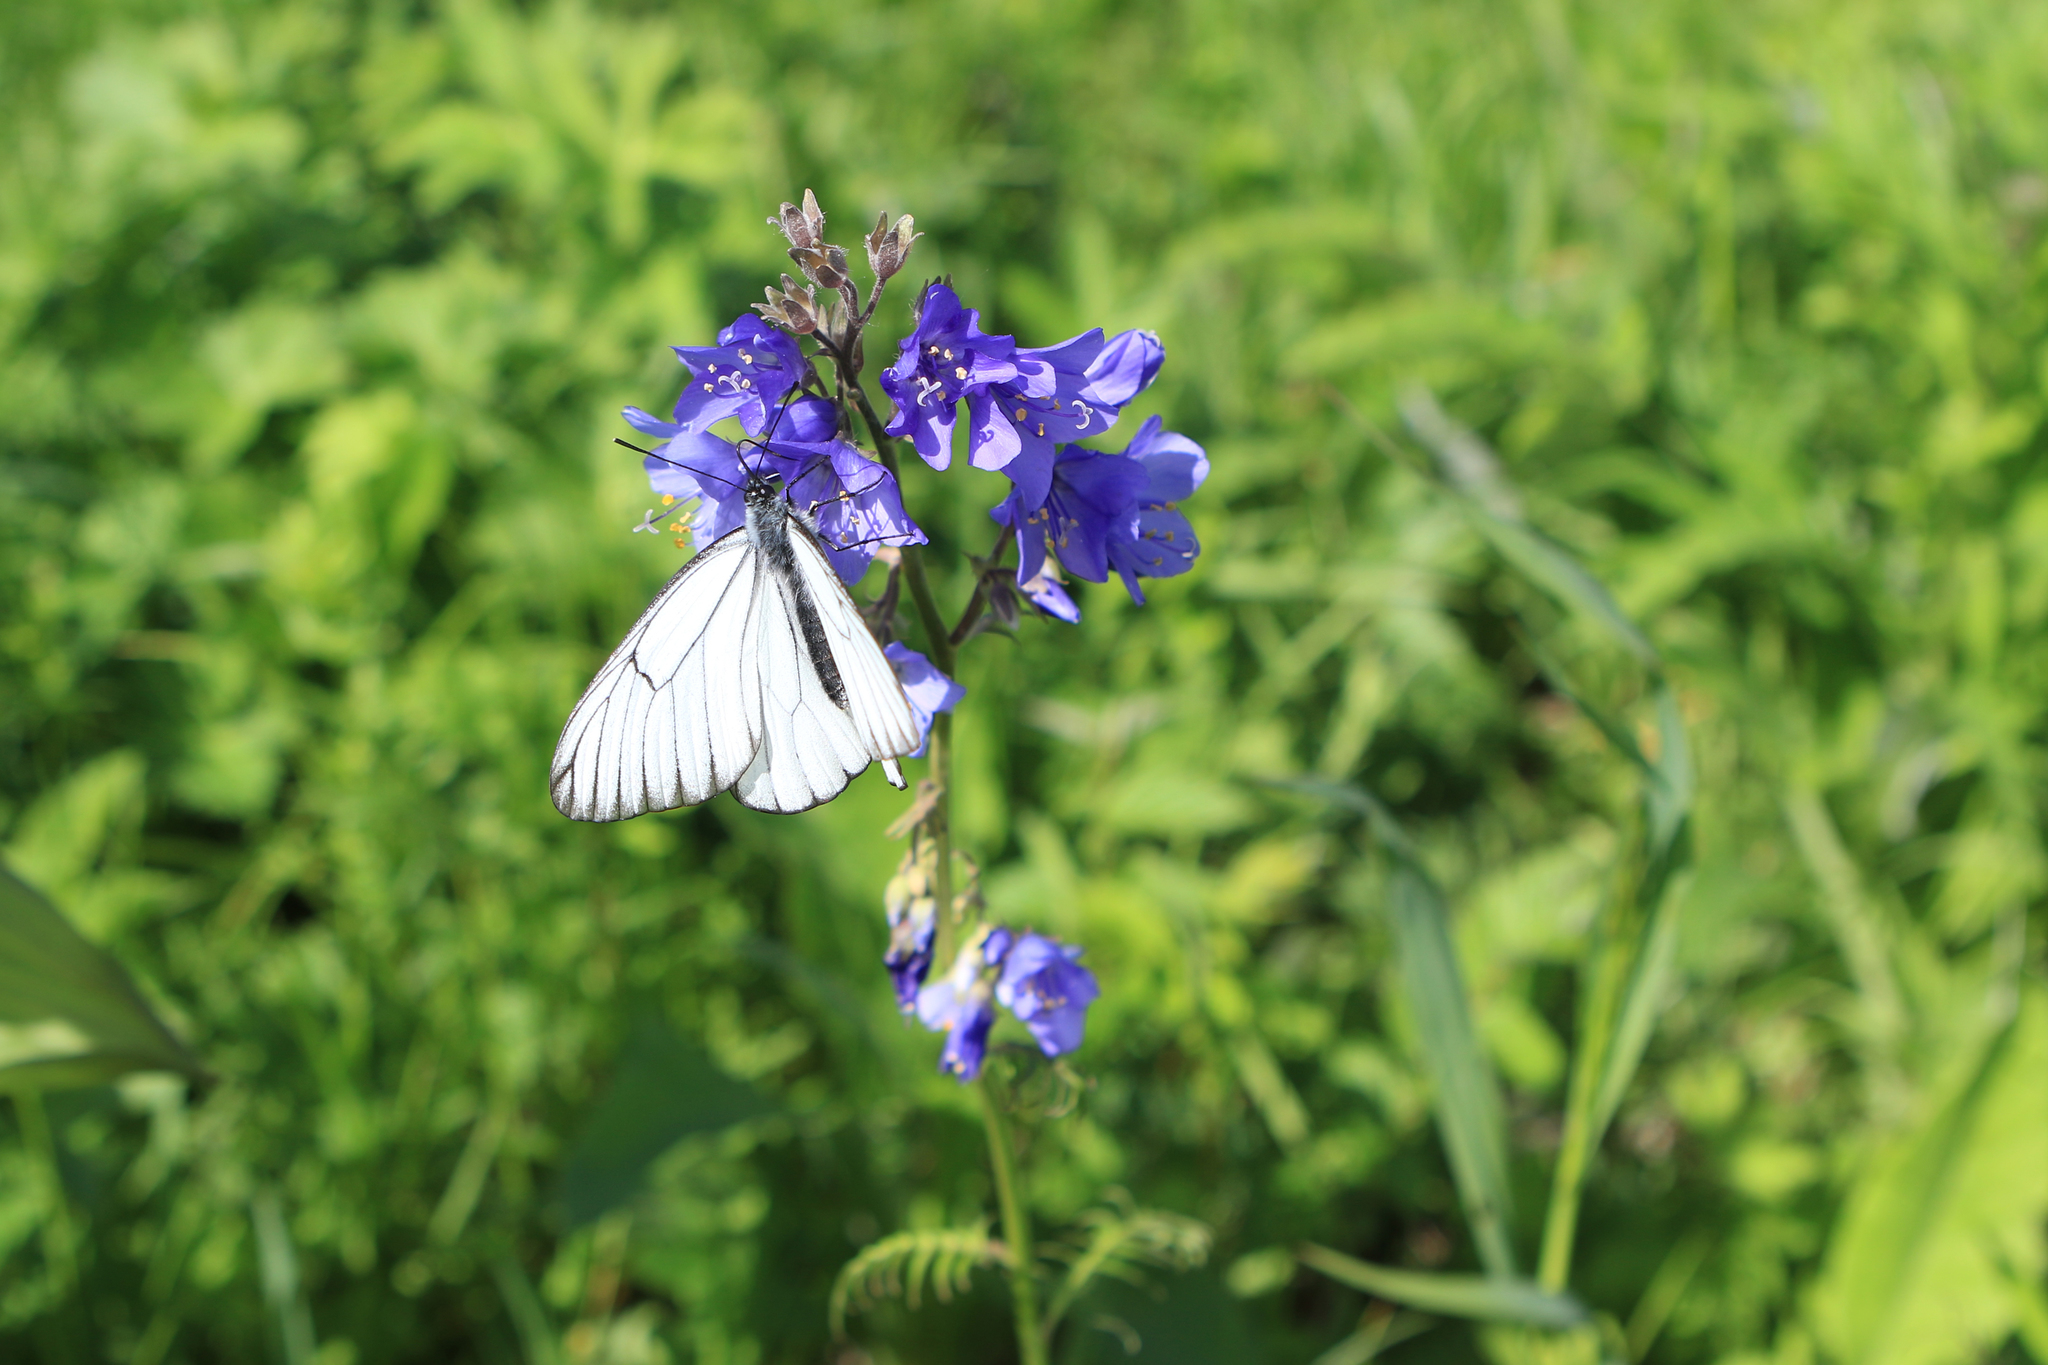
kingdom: Plantae
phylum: Tracheophyta
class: Magnoliopsida
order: Ericales
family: Polemoniaceae
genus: Polemonium
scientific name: Polemonium caeruleum
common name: Jacob's-ladder
